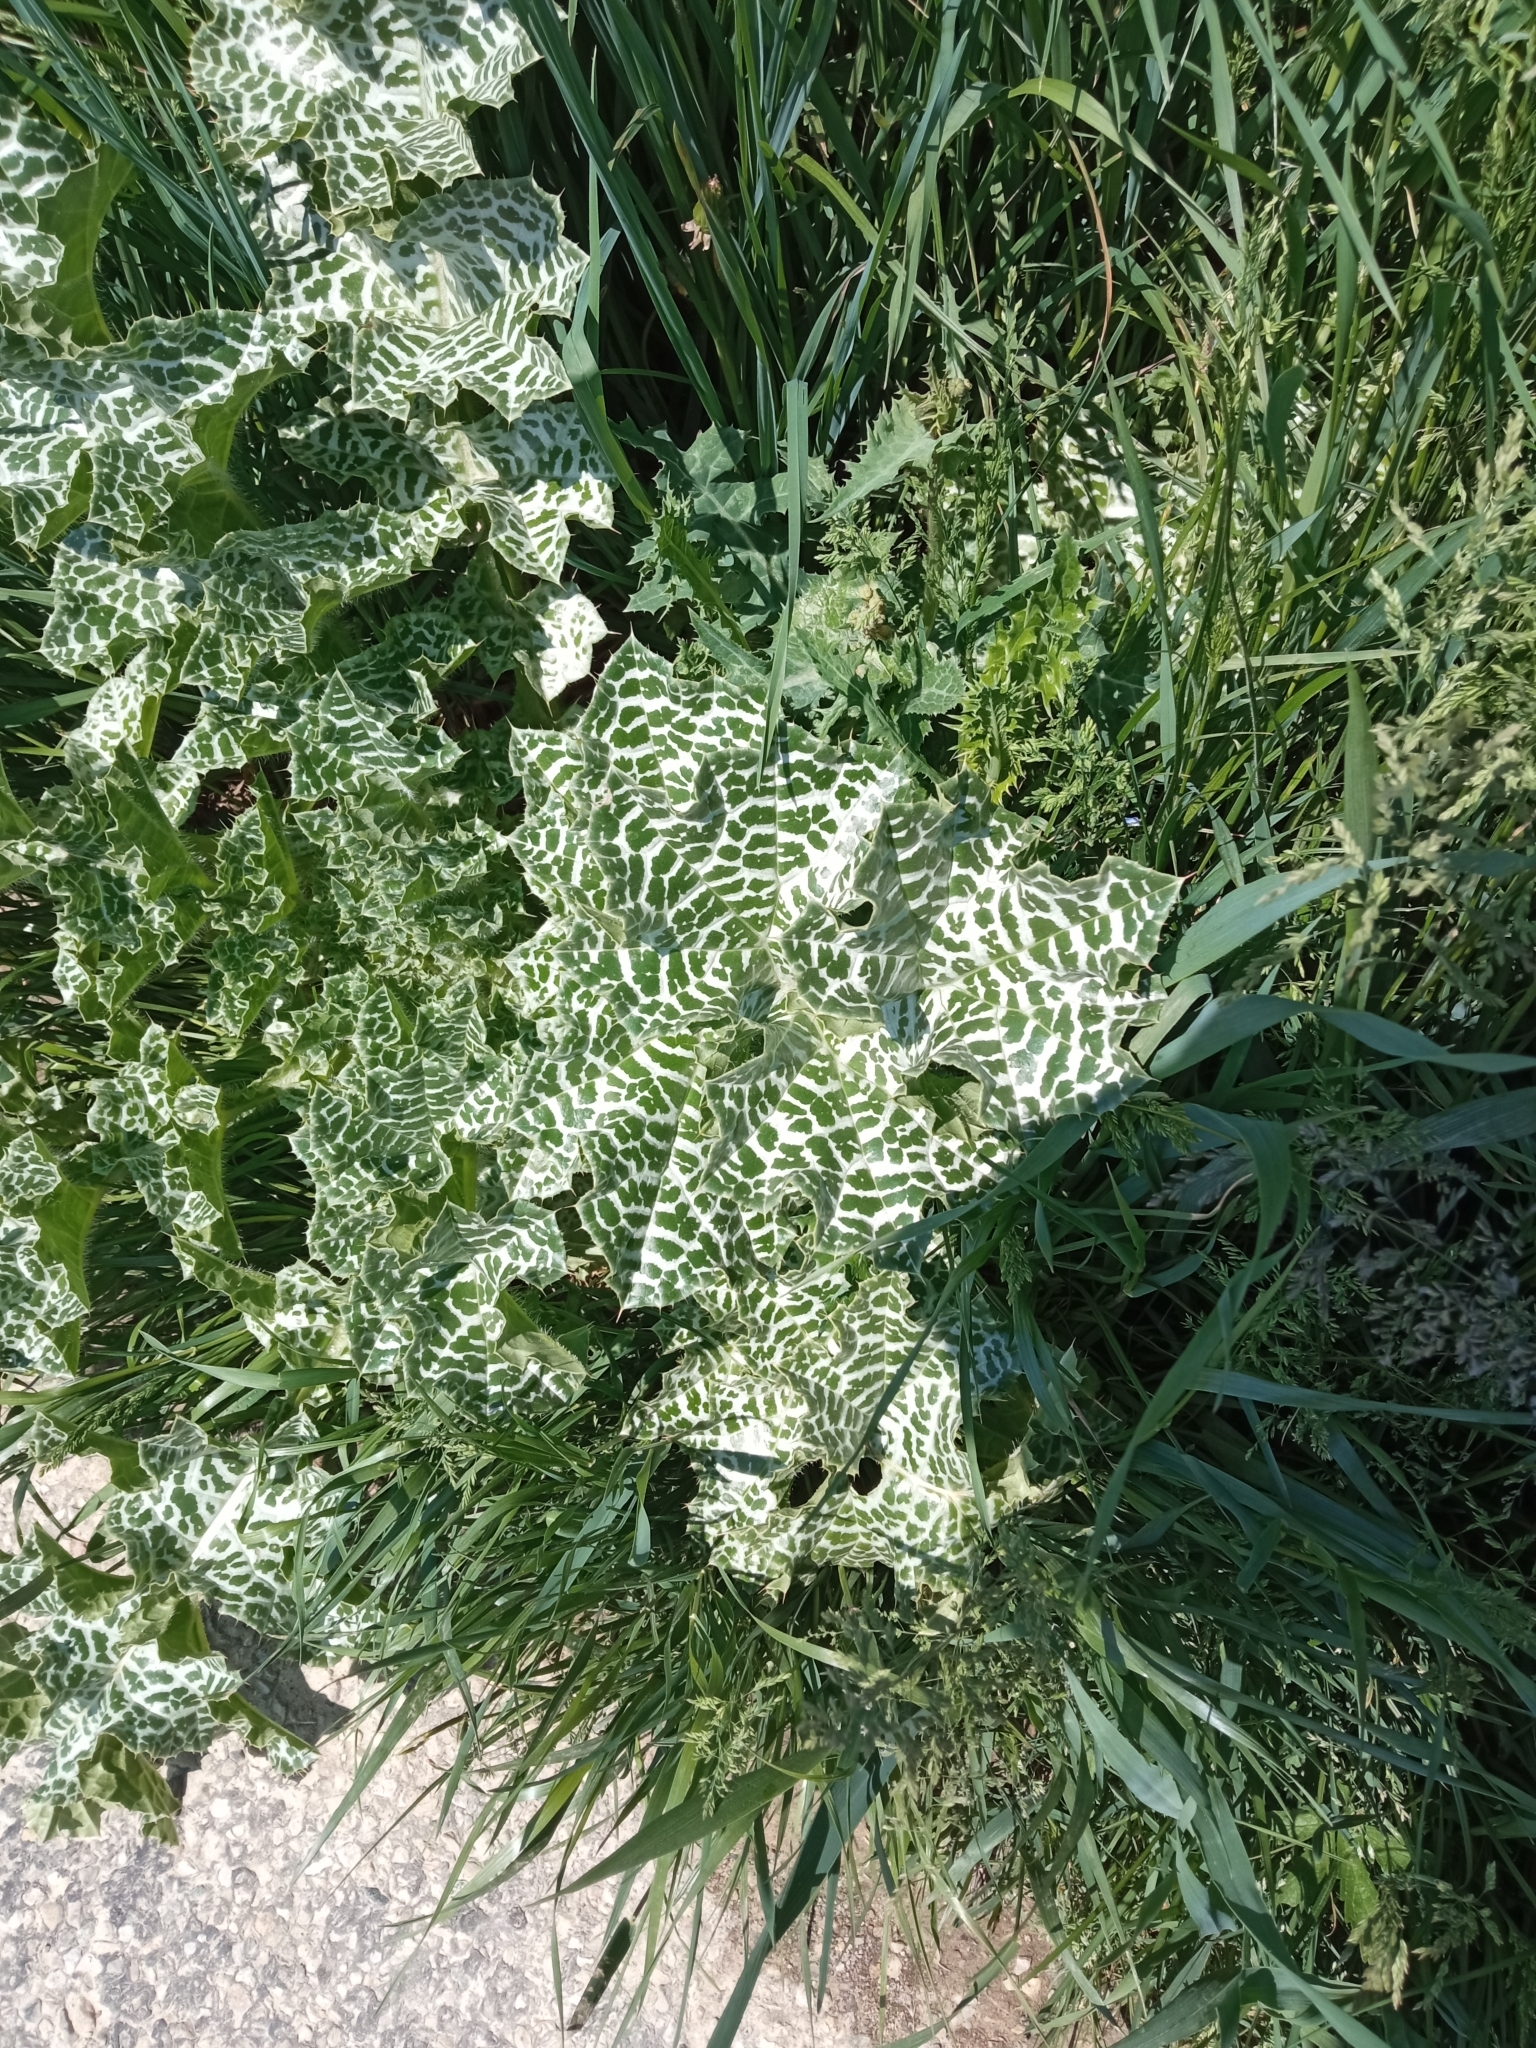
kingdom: Plantae
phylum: Tracheophyta
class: Magnoliopsida
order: Asterales
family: Asteraceae
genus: Silybum
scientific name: Silybum marianum
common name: Milk thistle
